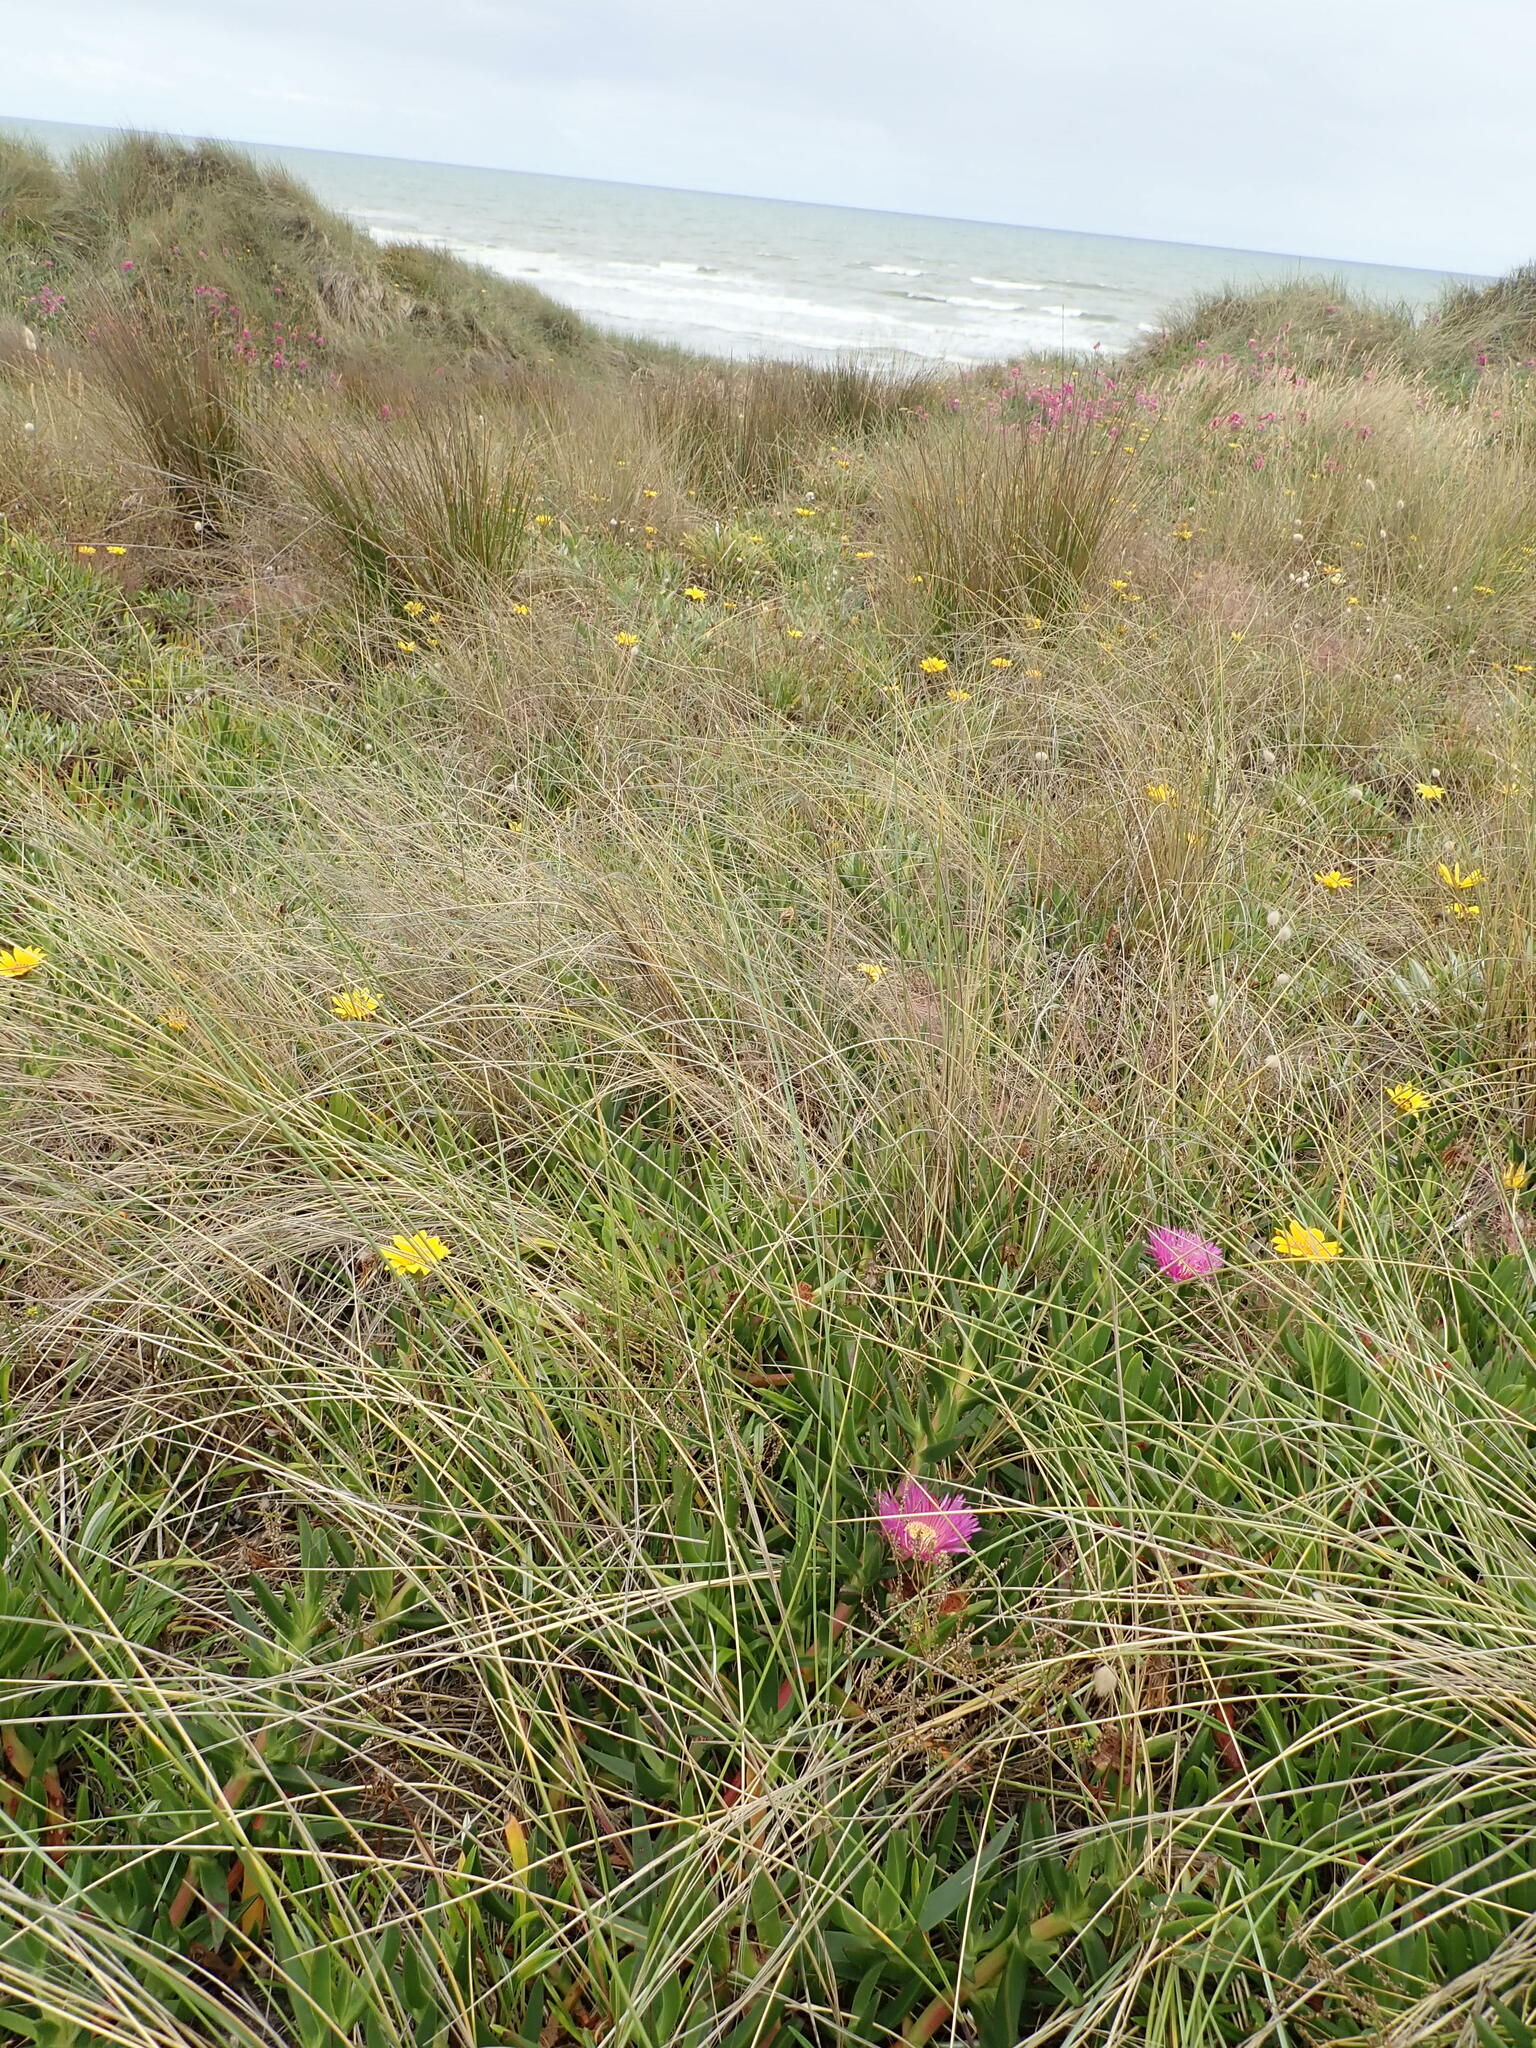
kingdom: Plantae
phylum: Tracheophyta
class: Magnoliopsida
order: Caryophyllales
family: Aizoaceae
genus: Carpobrotus
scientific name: Carpobrotus chilensis
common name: Sea fig
